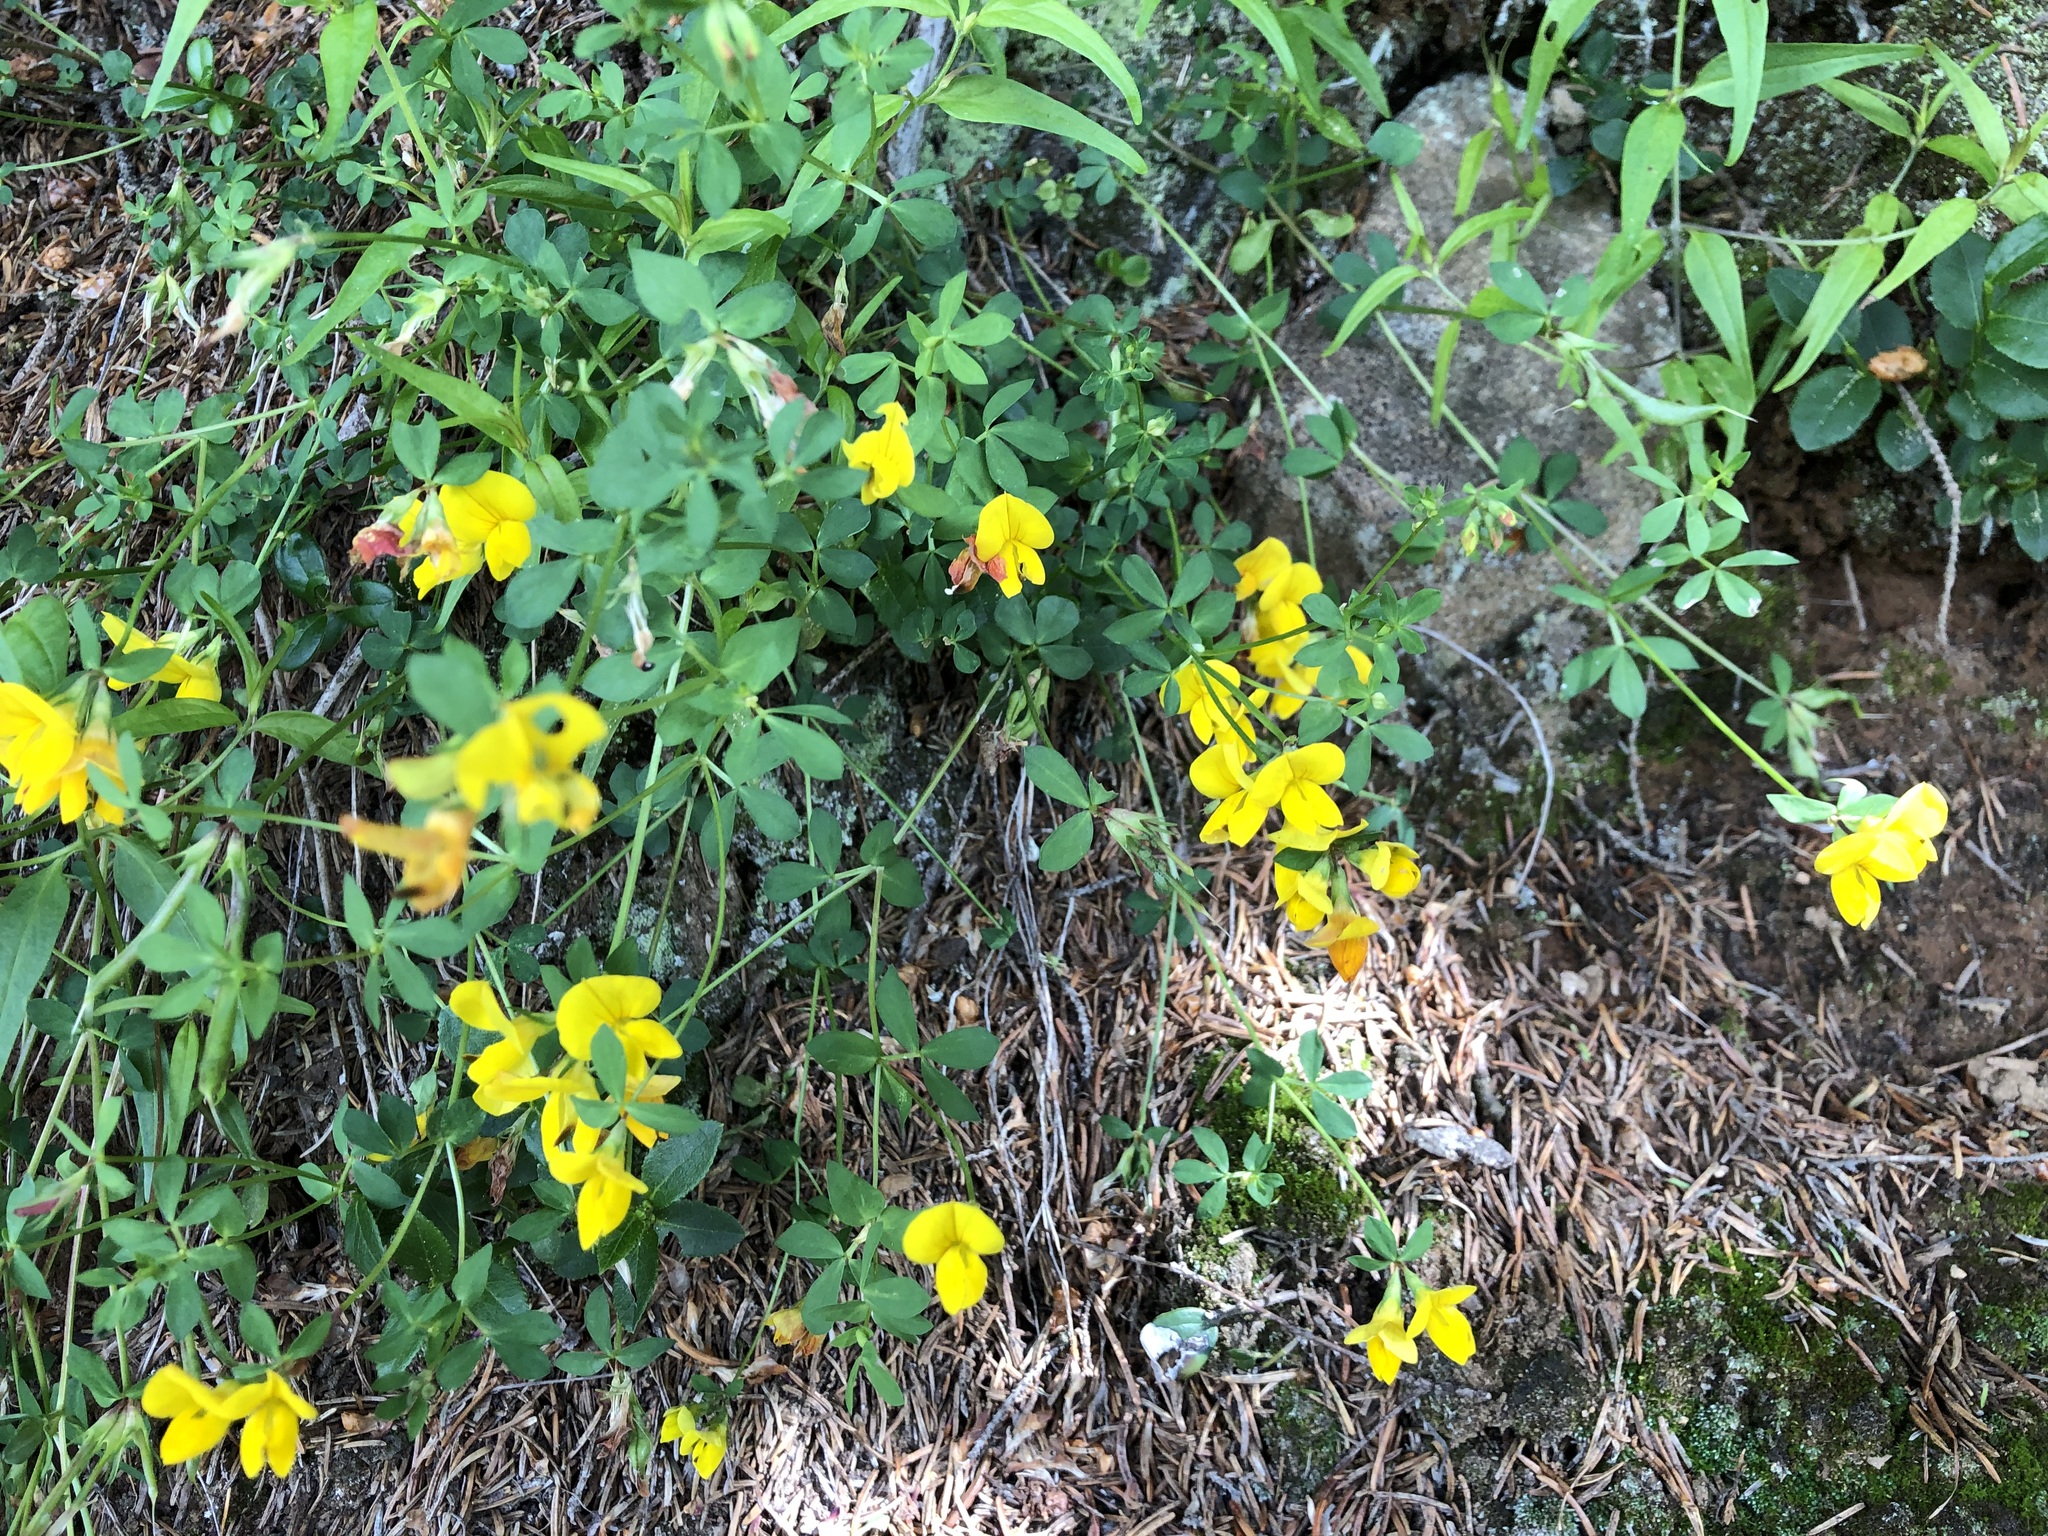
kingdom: Plantae
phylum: Tracheophyta
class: Magnoliopsida
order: Fabales
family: Fabaceae
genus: Lotus
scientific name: Lotus corniculatus
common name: Common bird's-foot-trefoil
